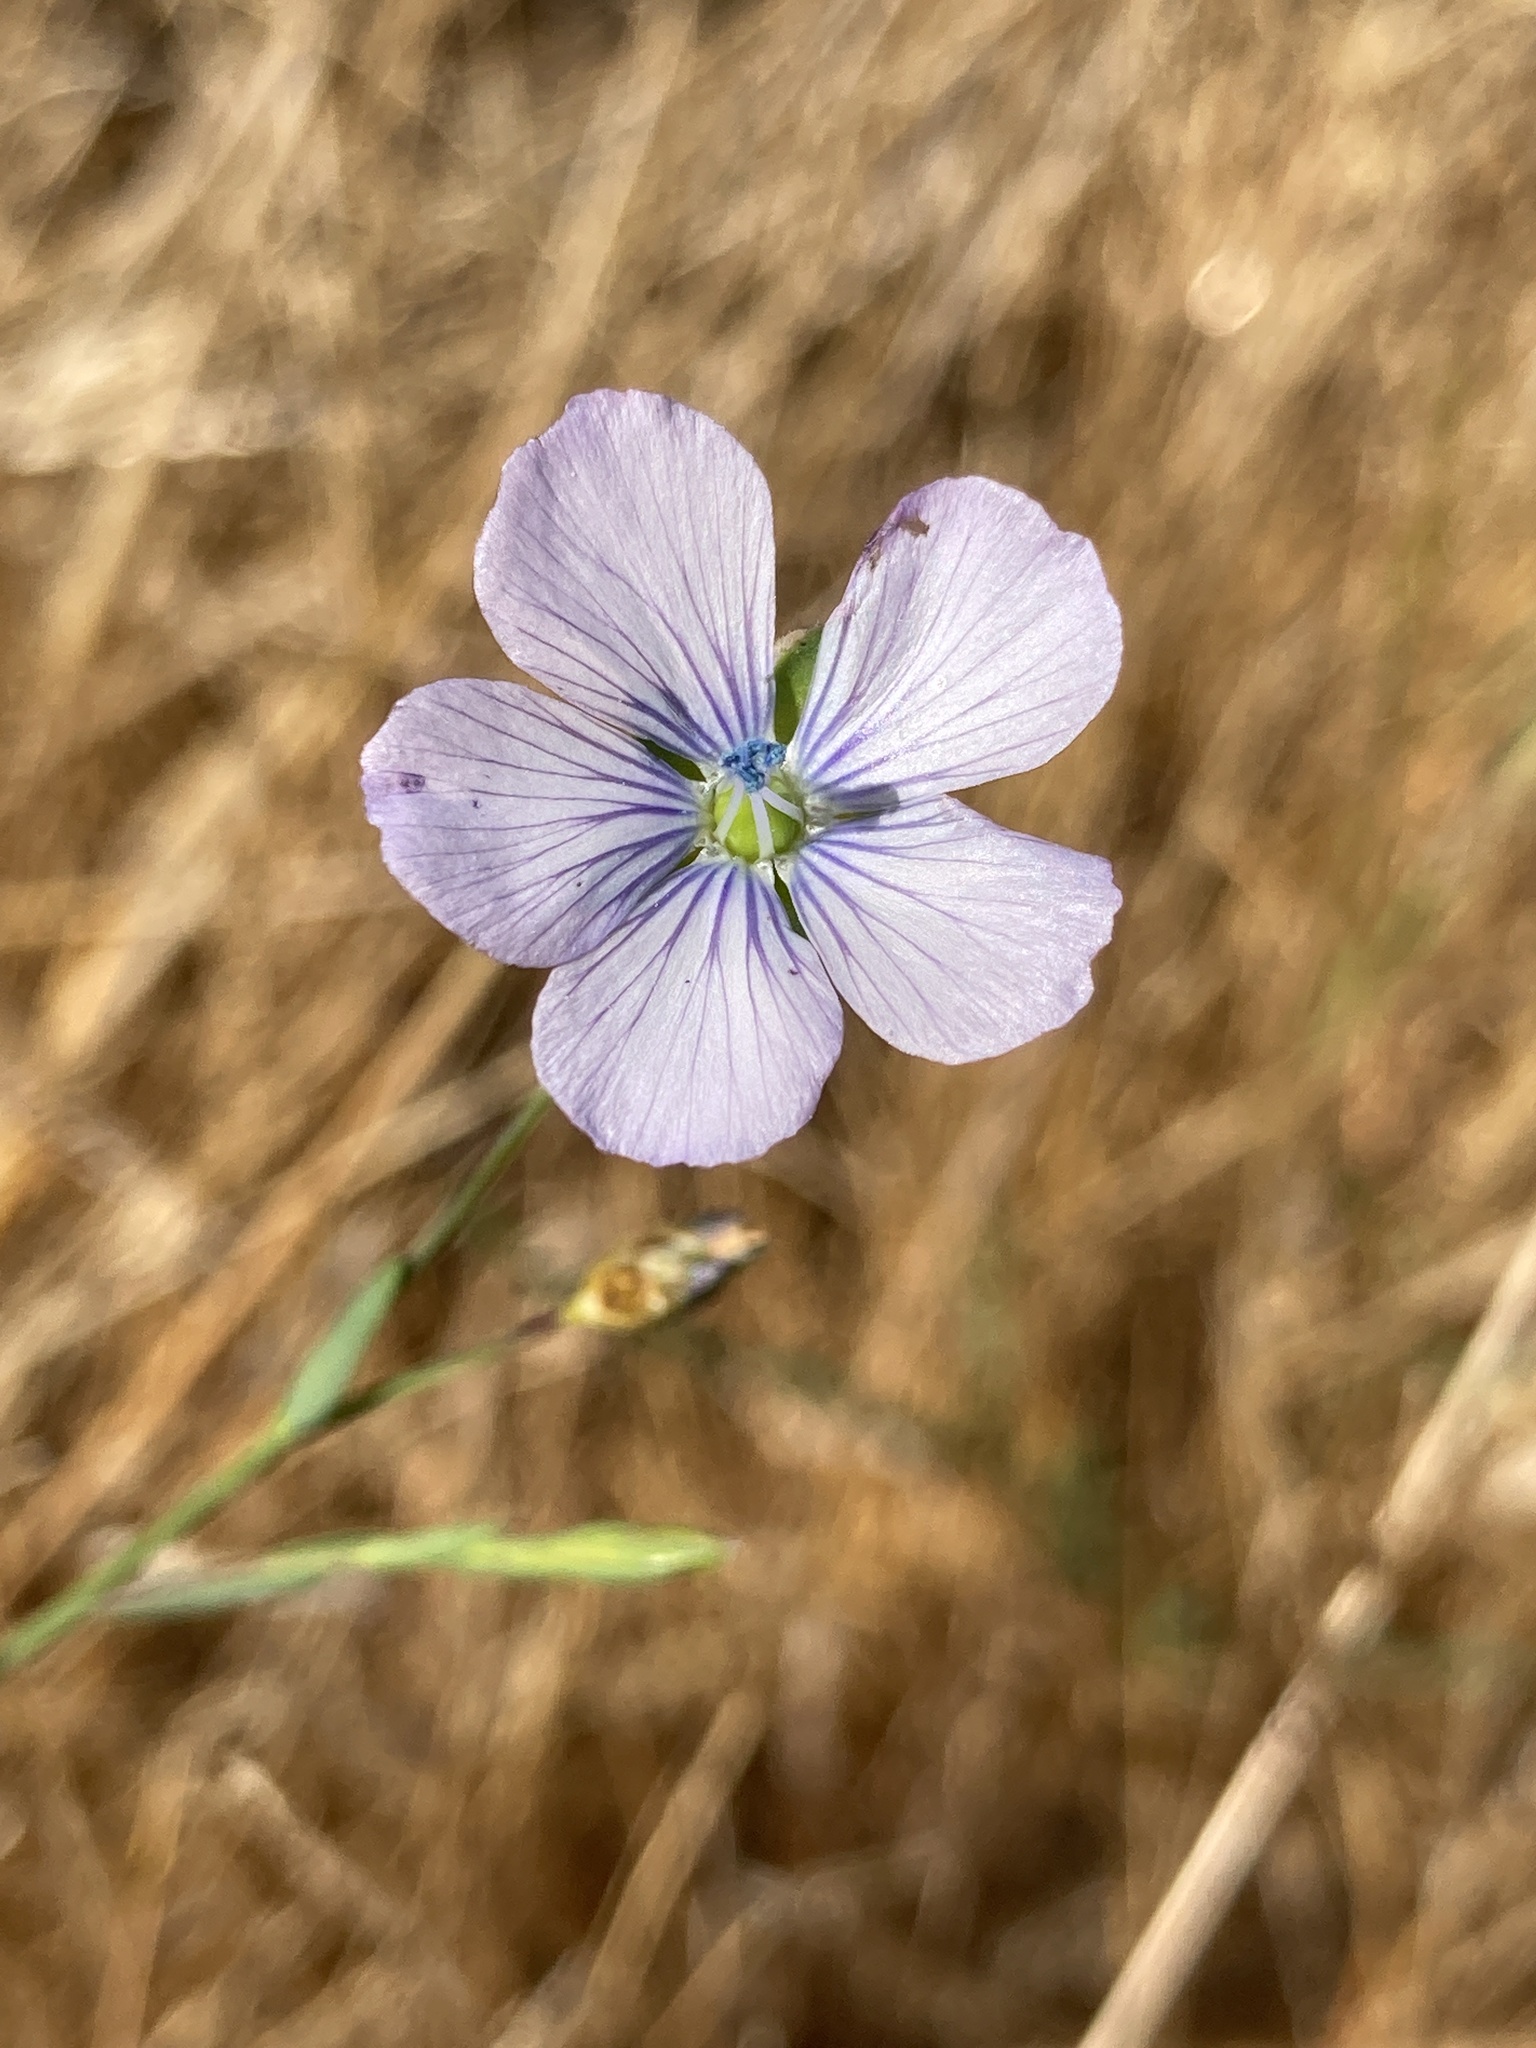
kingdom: Plantae
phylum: Tracheophyta
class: Magnoliopsida
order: Malpighiales
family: Linaceae
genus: Linum
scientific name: Linum bienne
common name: Pale flax
